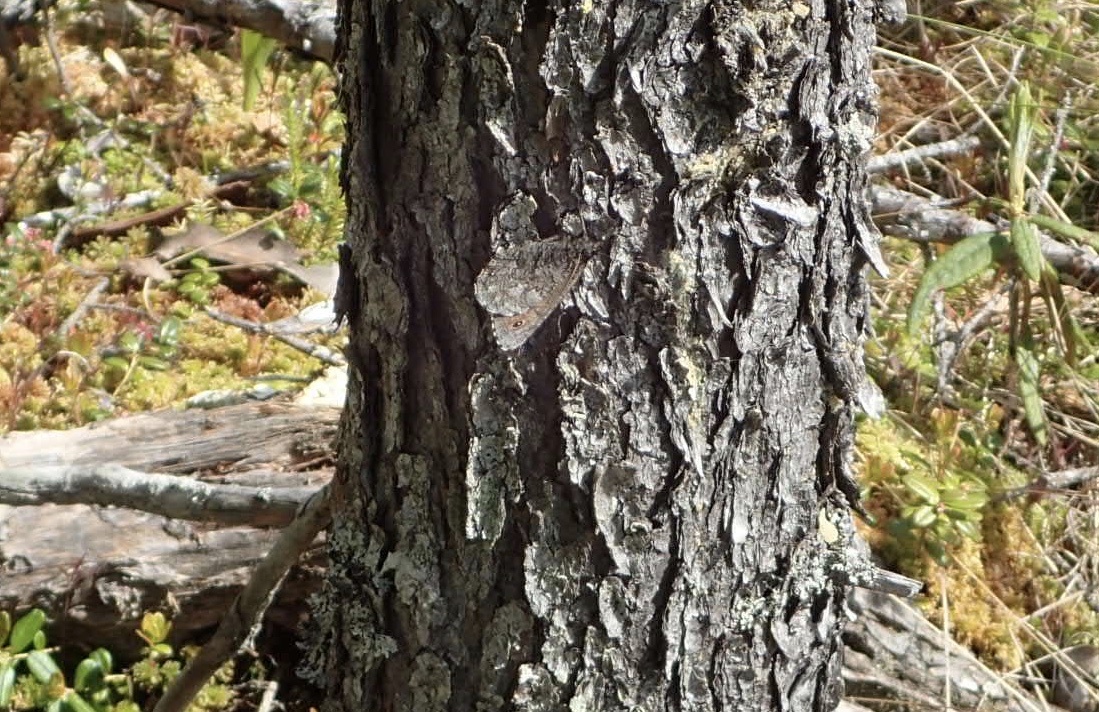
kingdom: Animalia
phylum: Arthropoda
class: Insecta
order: Lepidoptera
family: Nymphalidae
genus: Oeneis
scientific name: Oeneis jutta
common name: Baltic grayling
